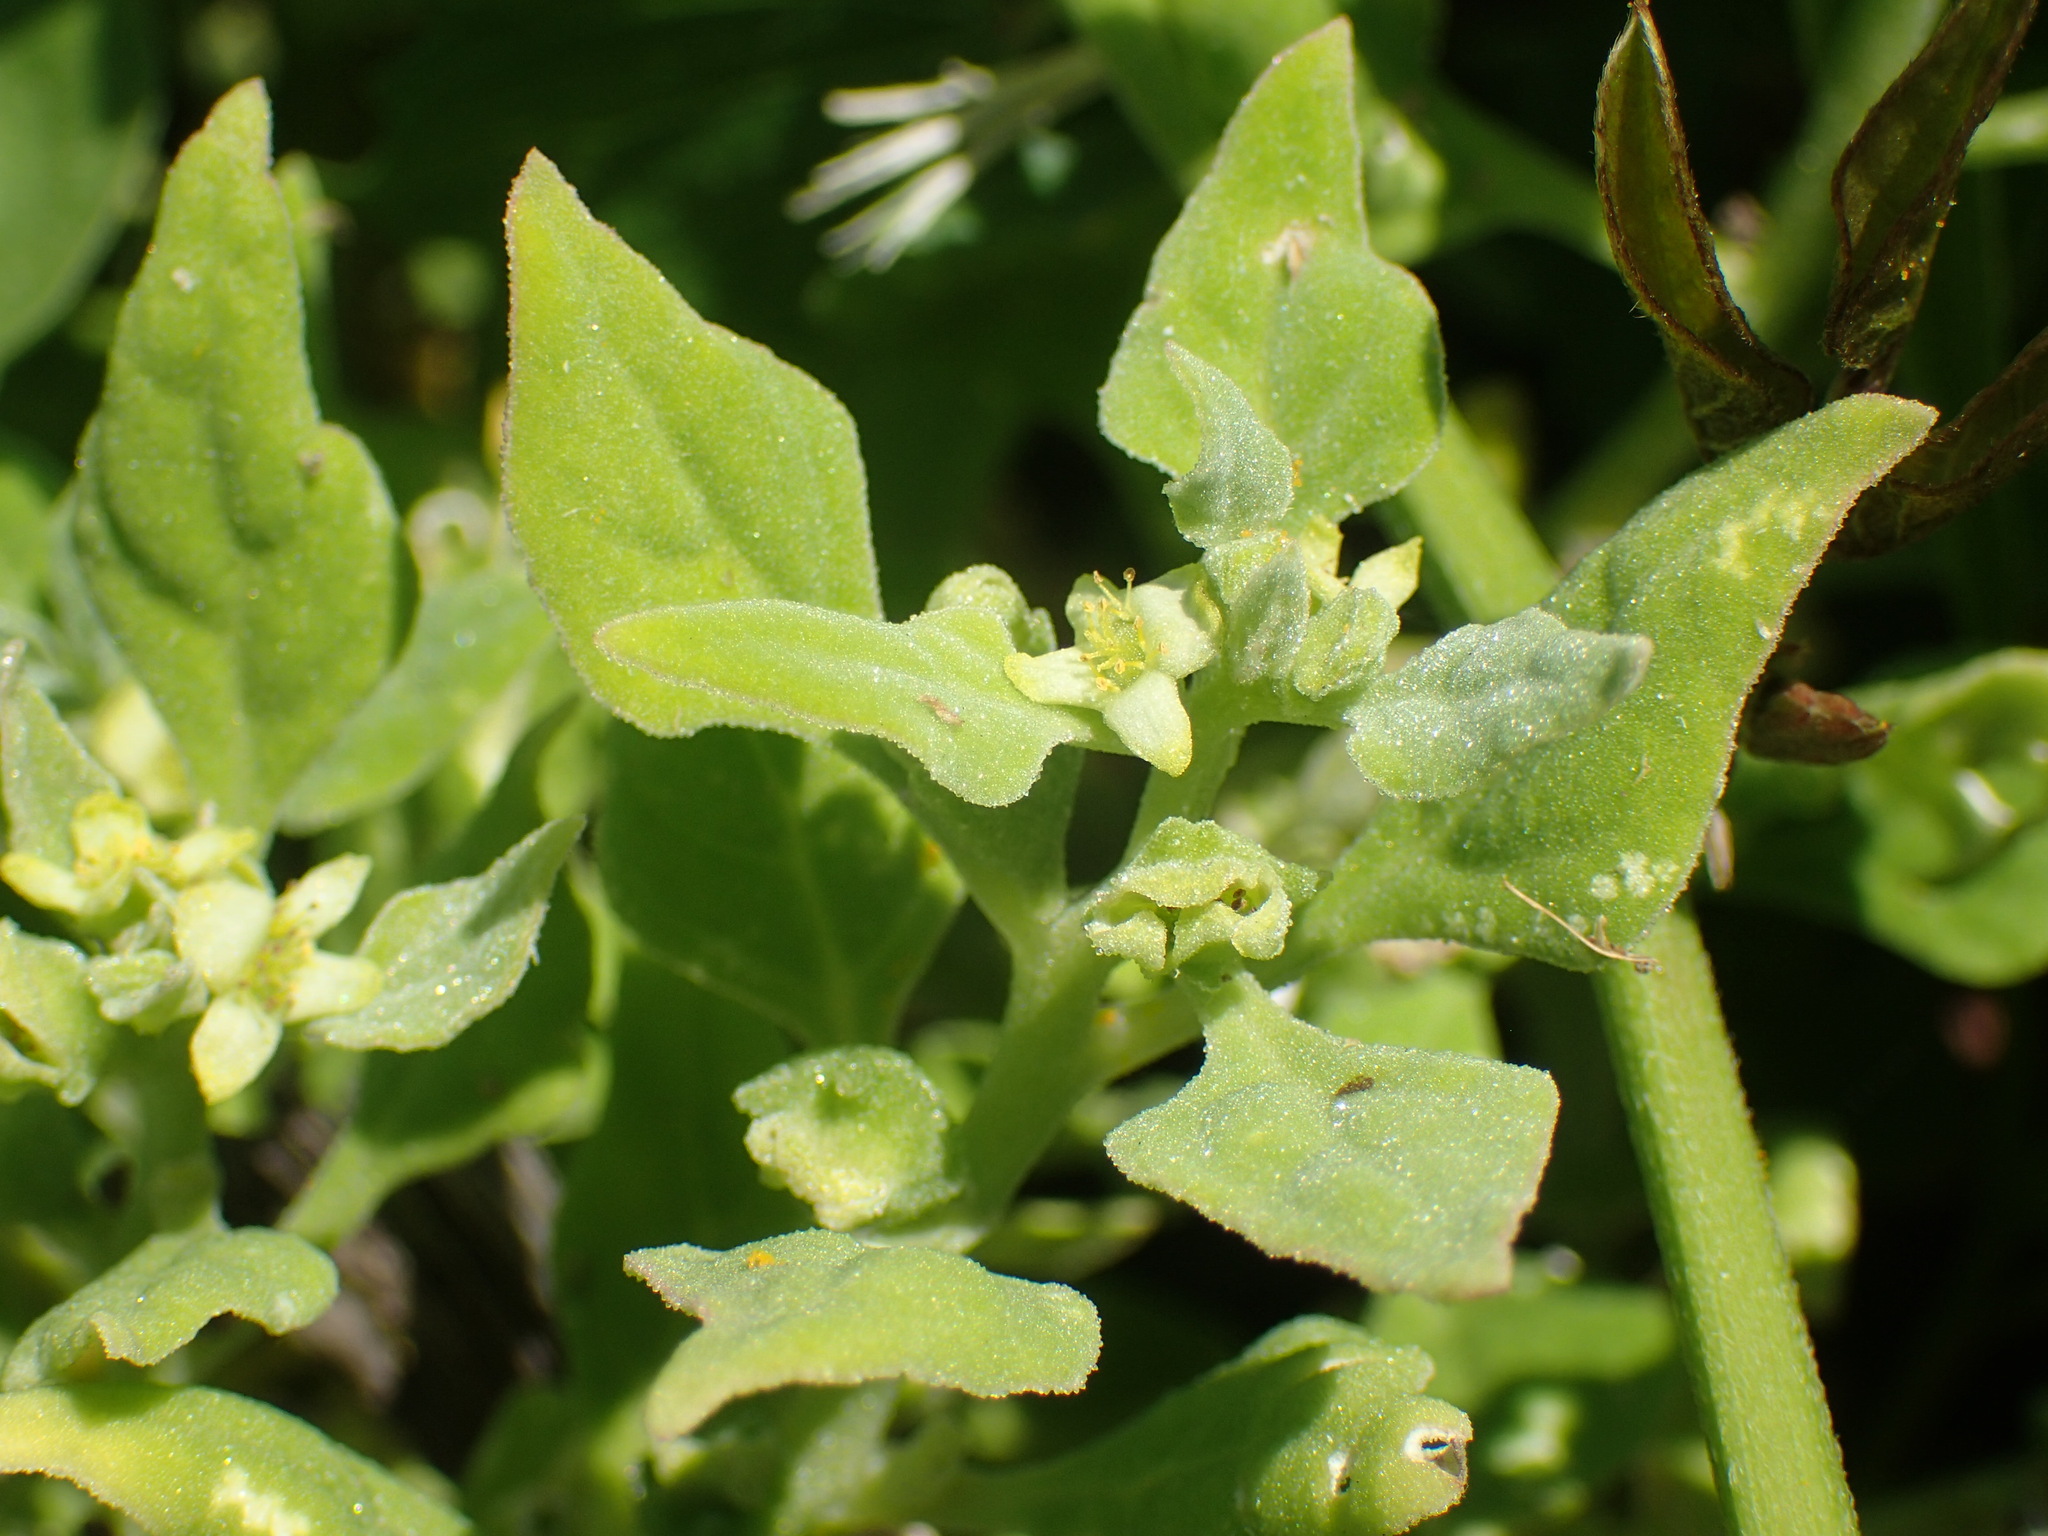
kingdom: Plantae
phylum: Tracheophyta
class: Magnoliopsida
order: Caryophyllales
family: Aizoaceae
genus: Tetragonia
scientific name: Tetragonia tetragonoides
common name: New zealand-spinach
